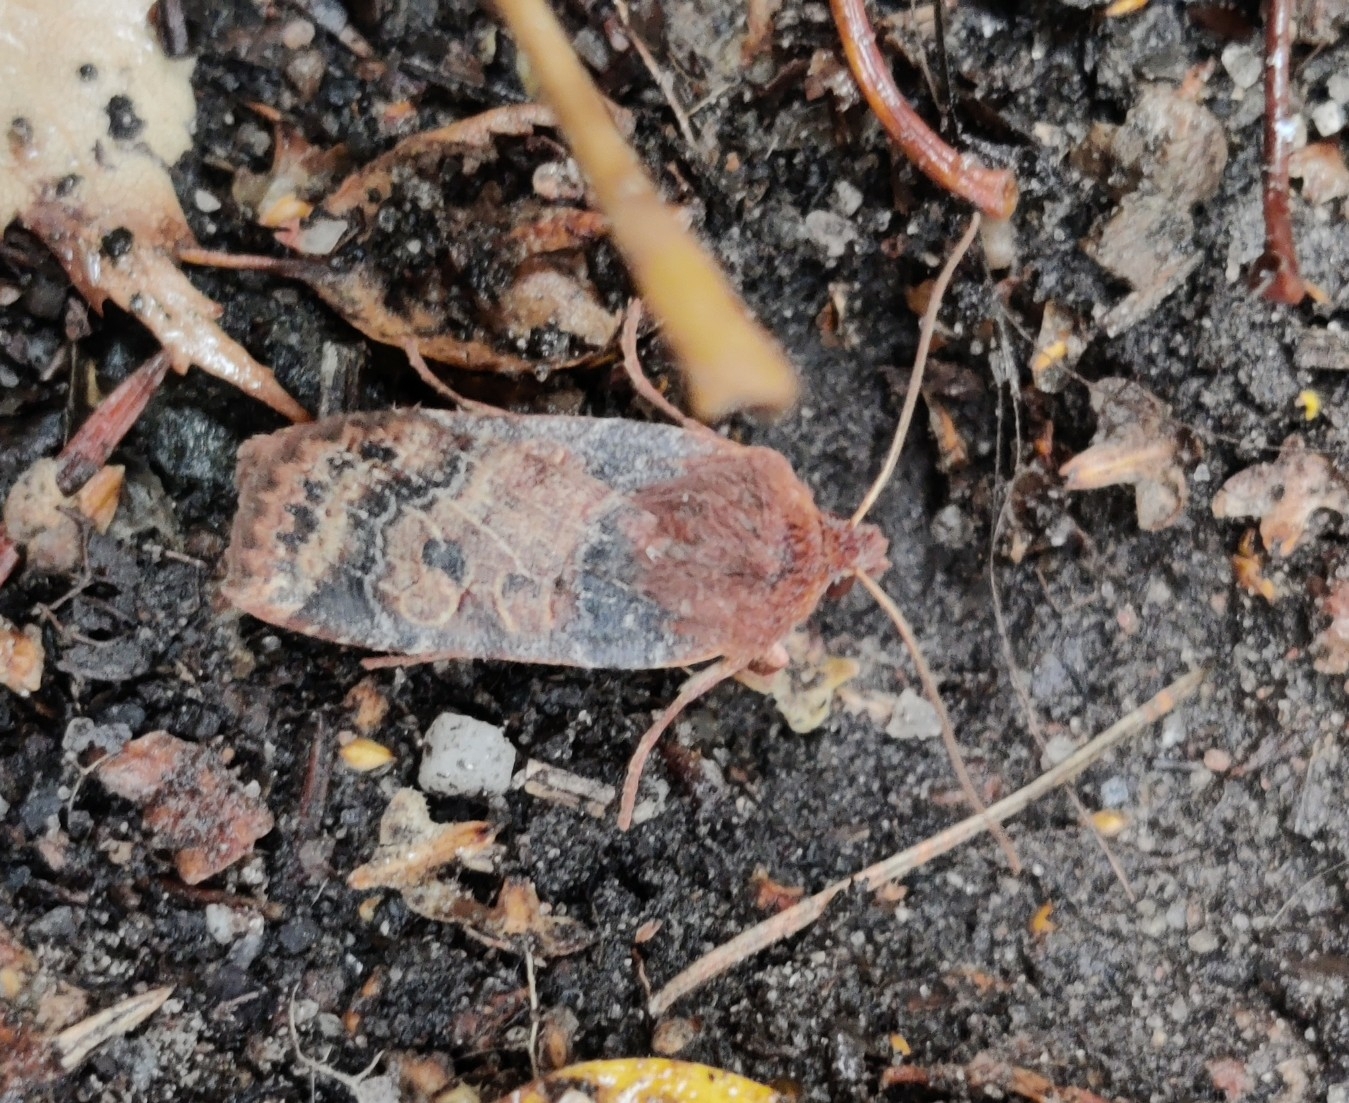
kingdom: Animalia
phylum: Arthropoda
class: Insecta
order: Lepidoptera
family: Noctuidae
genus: Conistra
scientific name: Conistra vaccinii
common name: Chestnut
